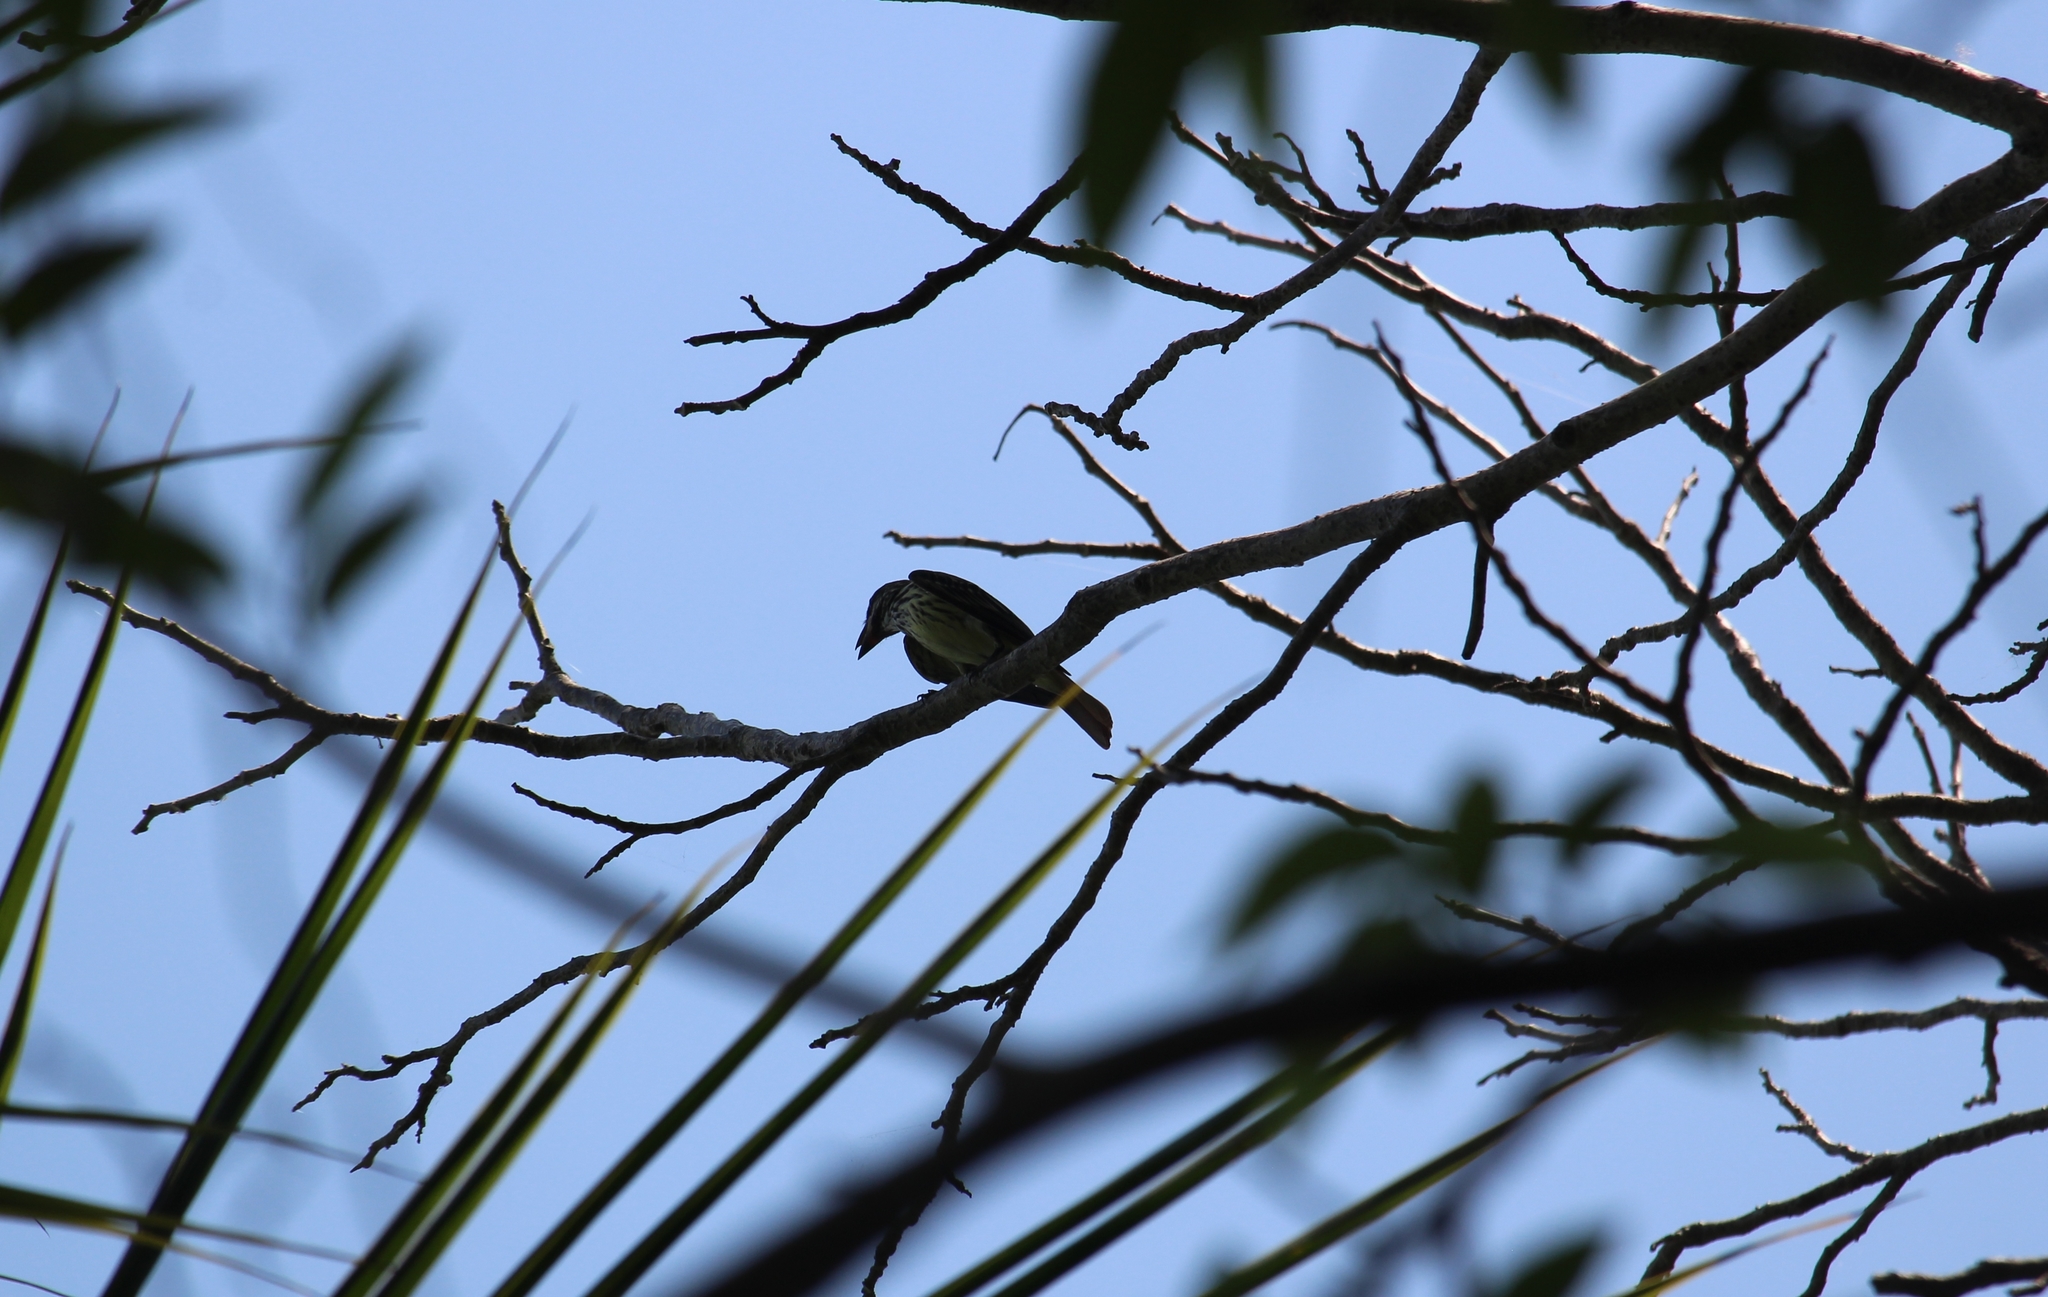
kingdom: Animalia
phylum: Chordata
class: Aves
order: Passeriformes
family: Tyrannidae
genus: Myiodynastes
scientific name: Myiodynastes luteiventris
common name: Sulphur-bellied flycatcher
